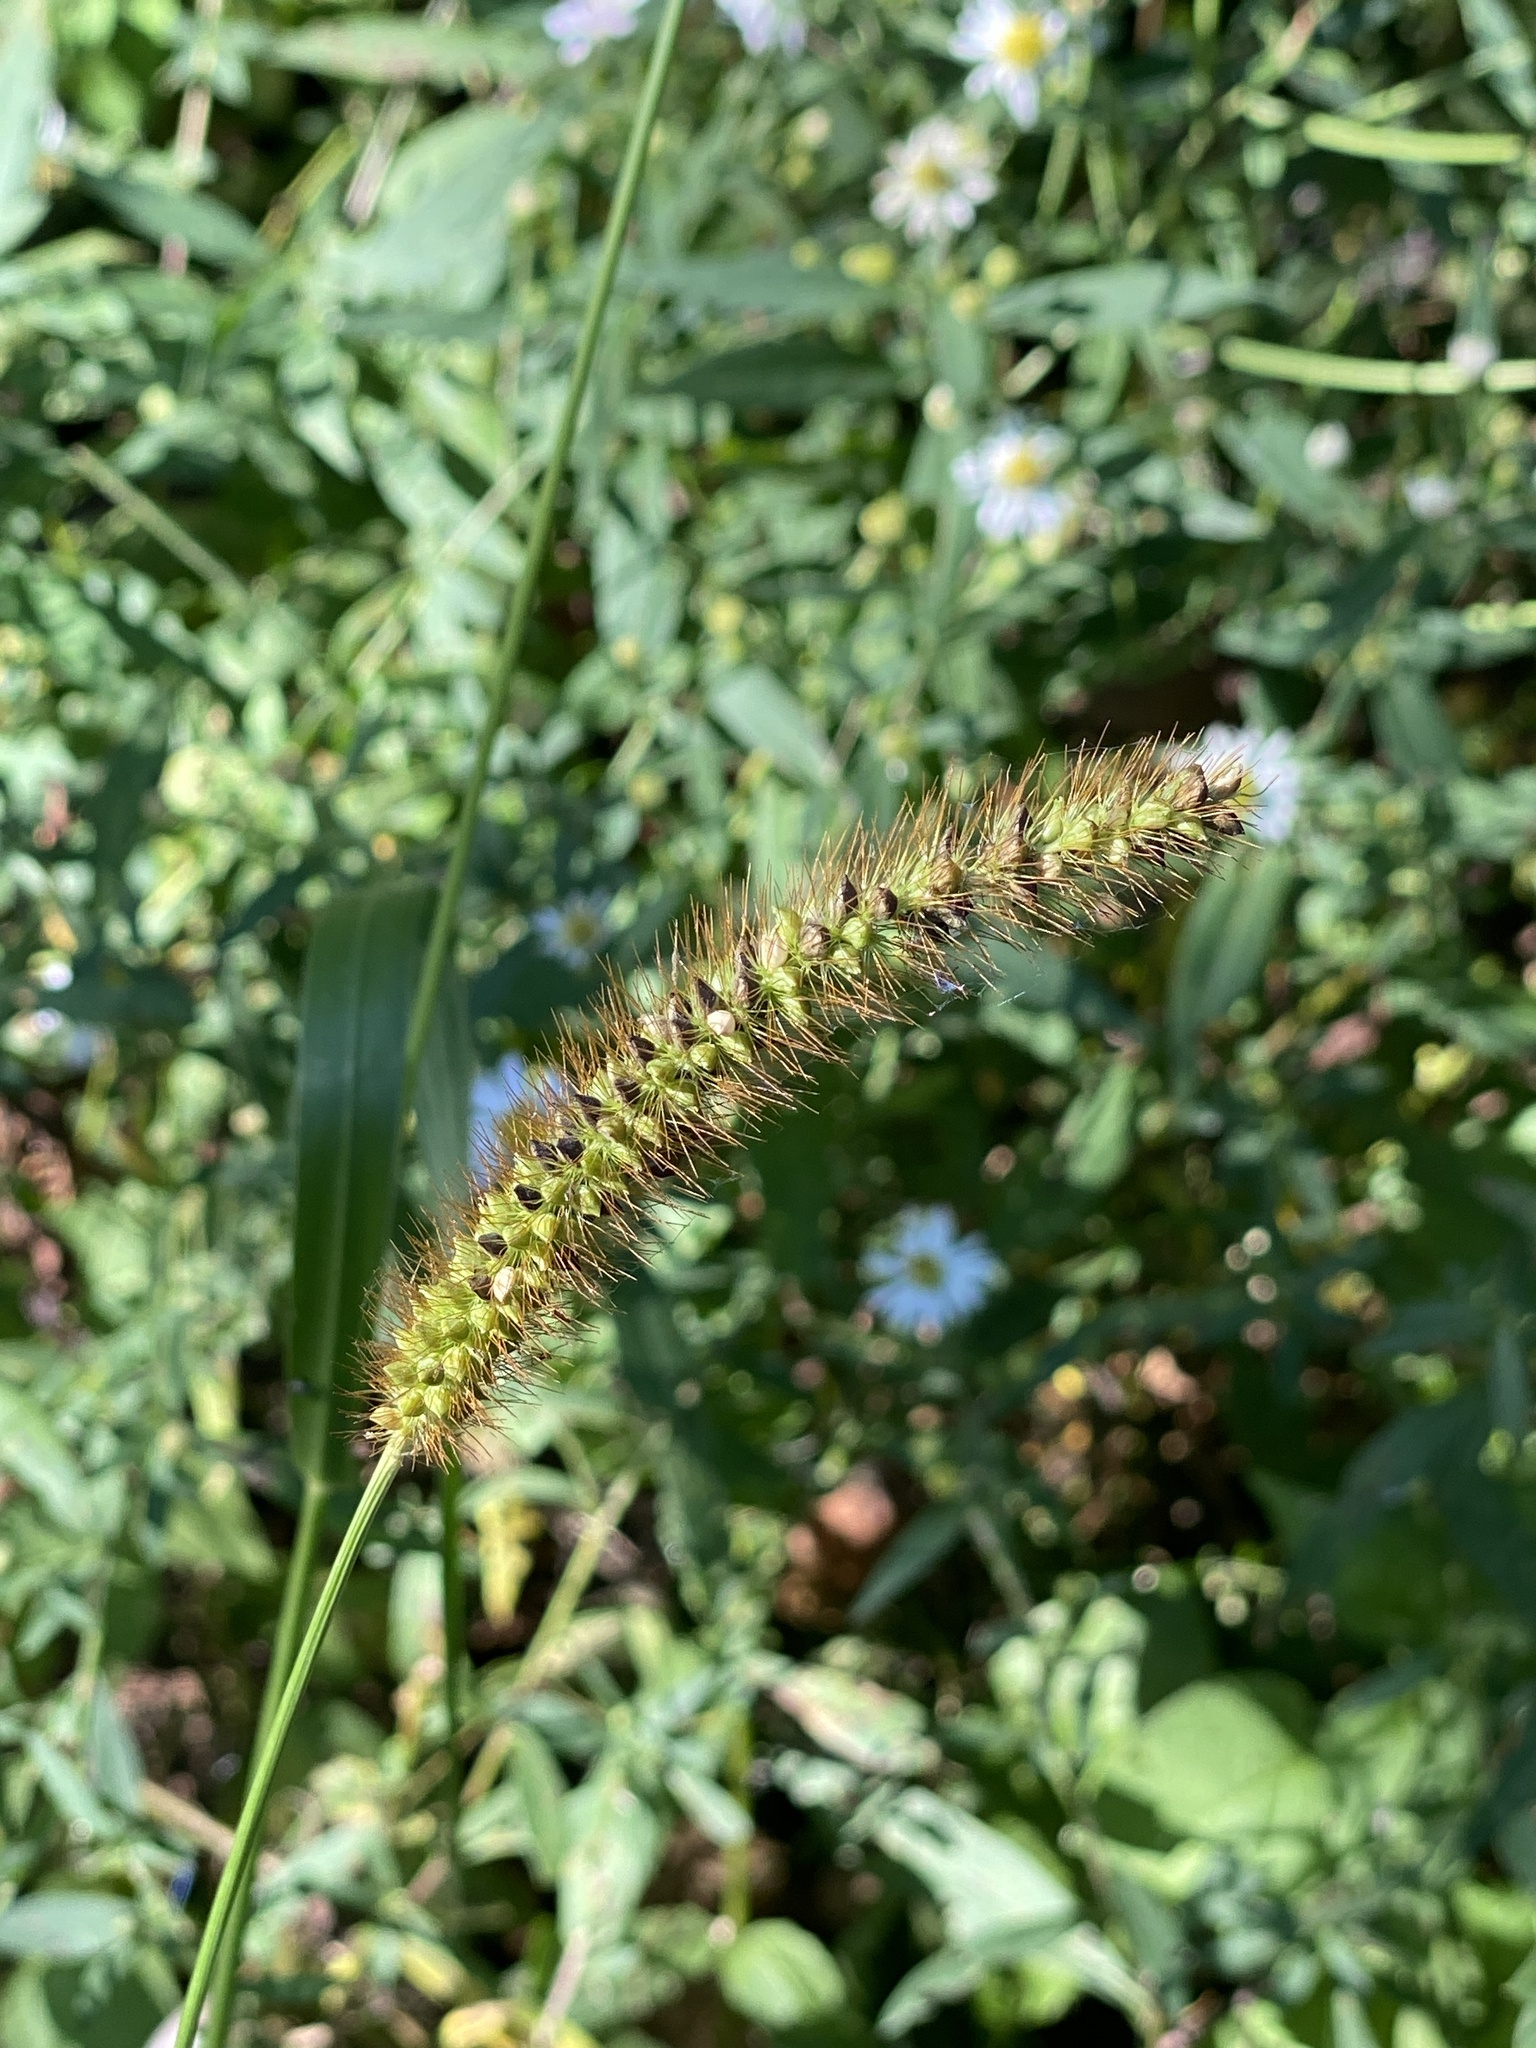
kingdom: Plantae
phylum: Tracheophyta
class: Liliopsida
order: Poales
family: Poaceae
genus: Setaria
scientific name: Setaria pumila
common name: Yellow bristle-grass
